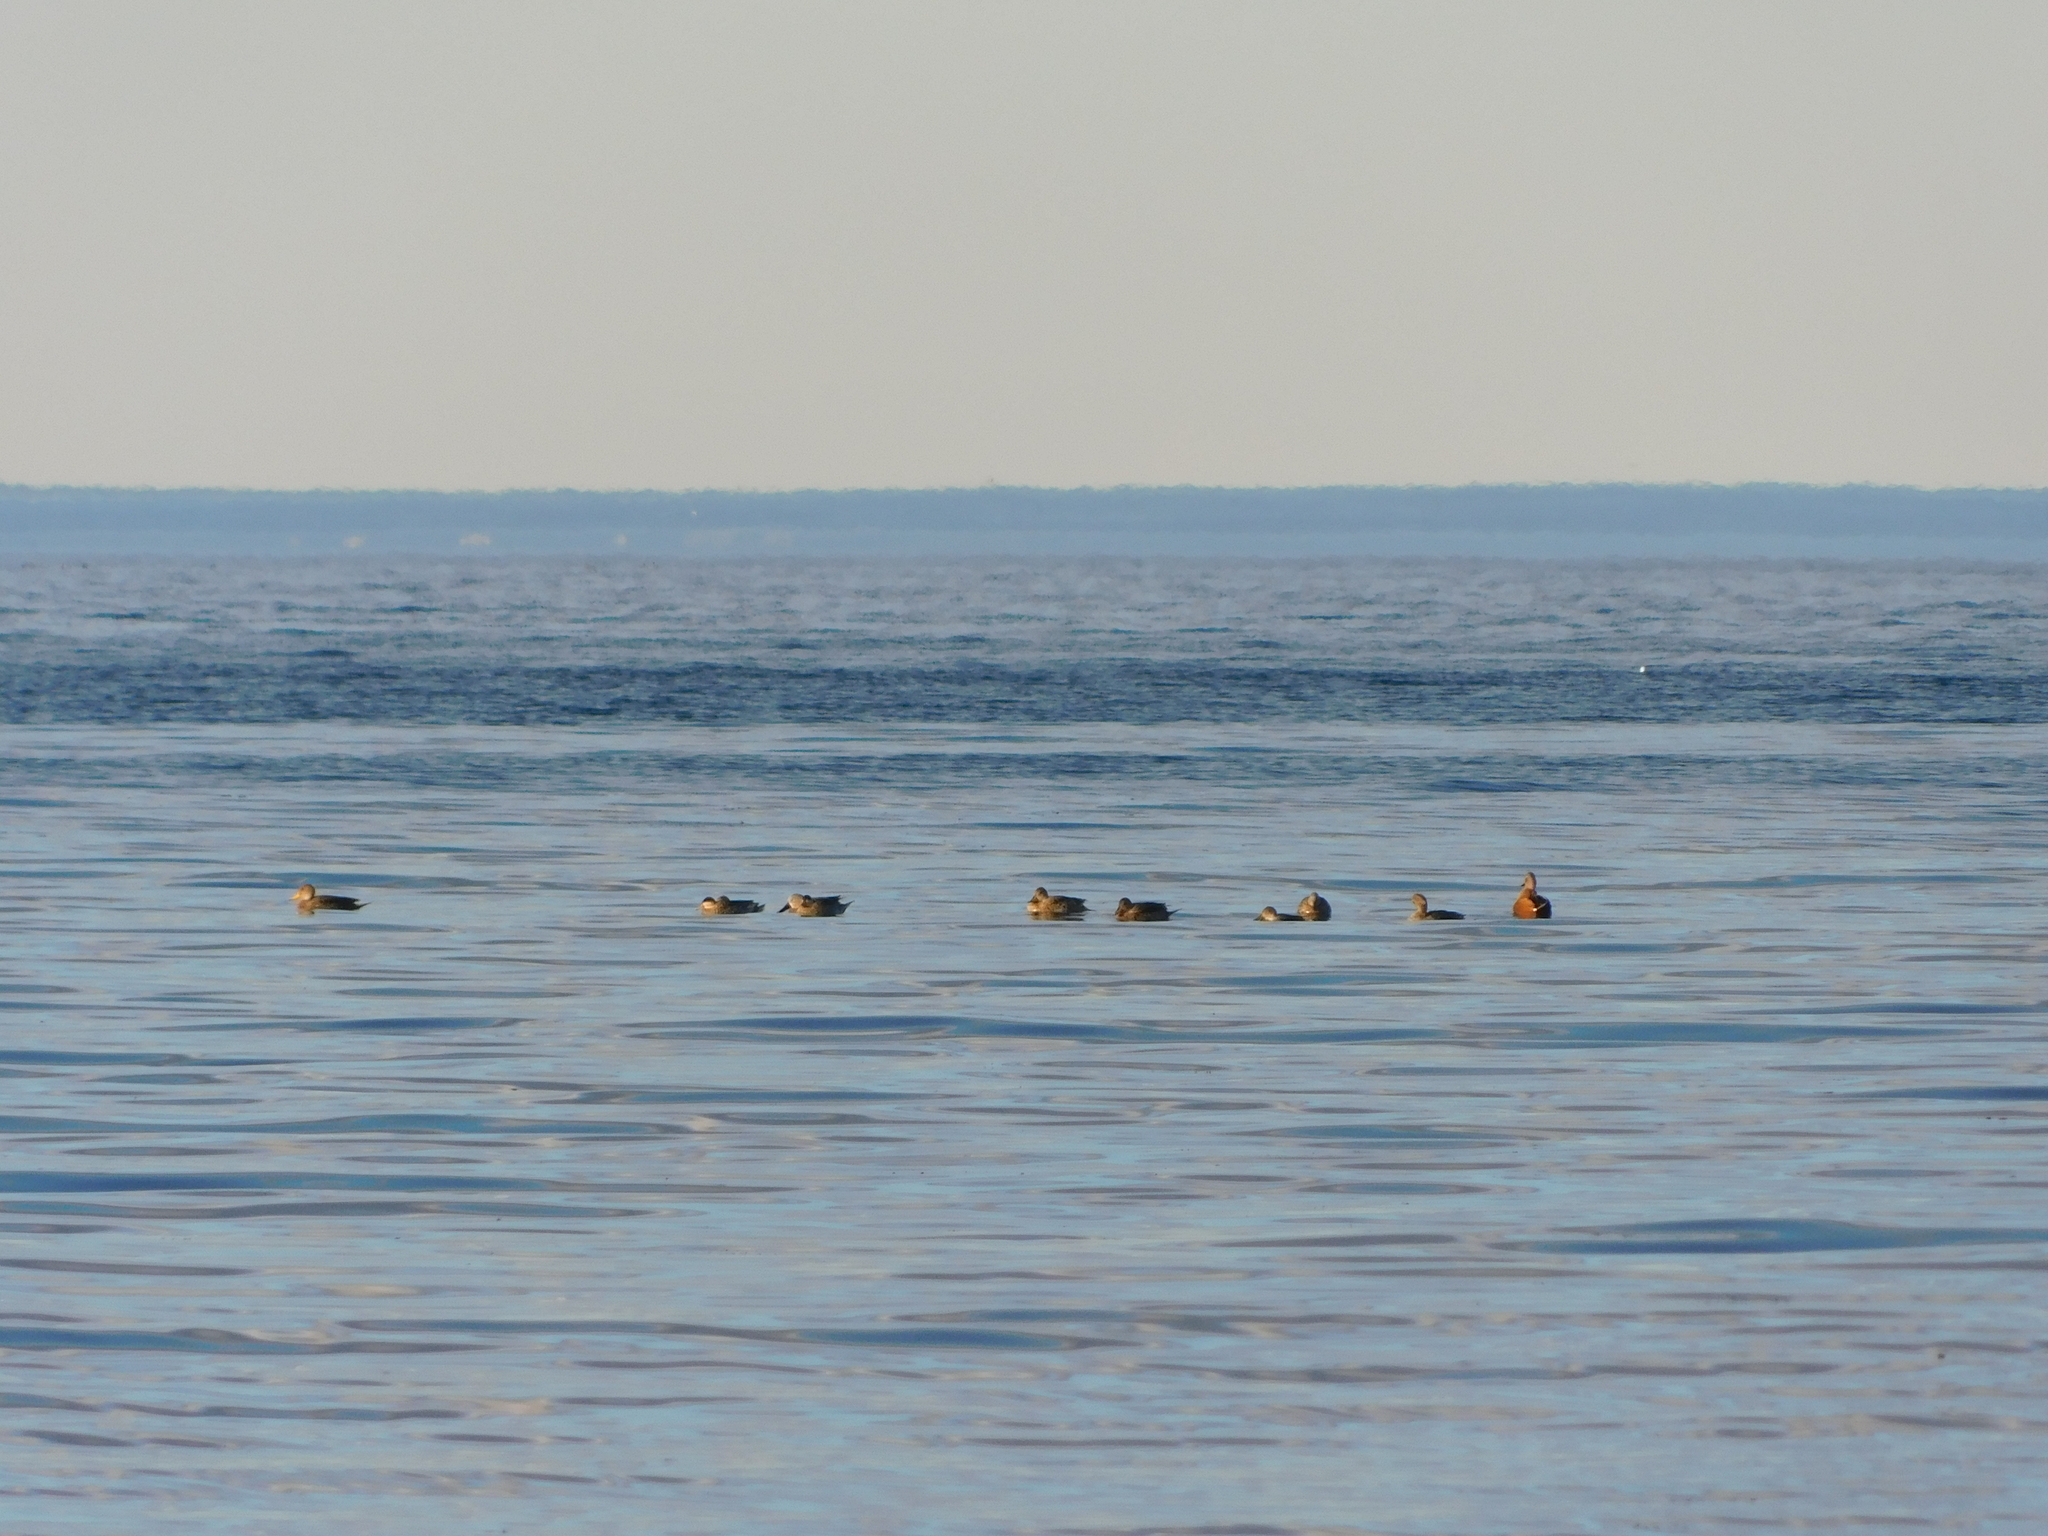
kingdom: Animalia
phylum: Chordata
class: Aves
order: Anseriformes
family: Anatidae
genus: Spatula
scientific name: Spatula platalea
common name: Red shoveler
